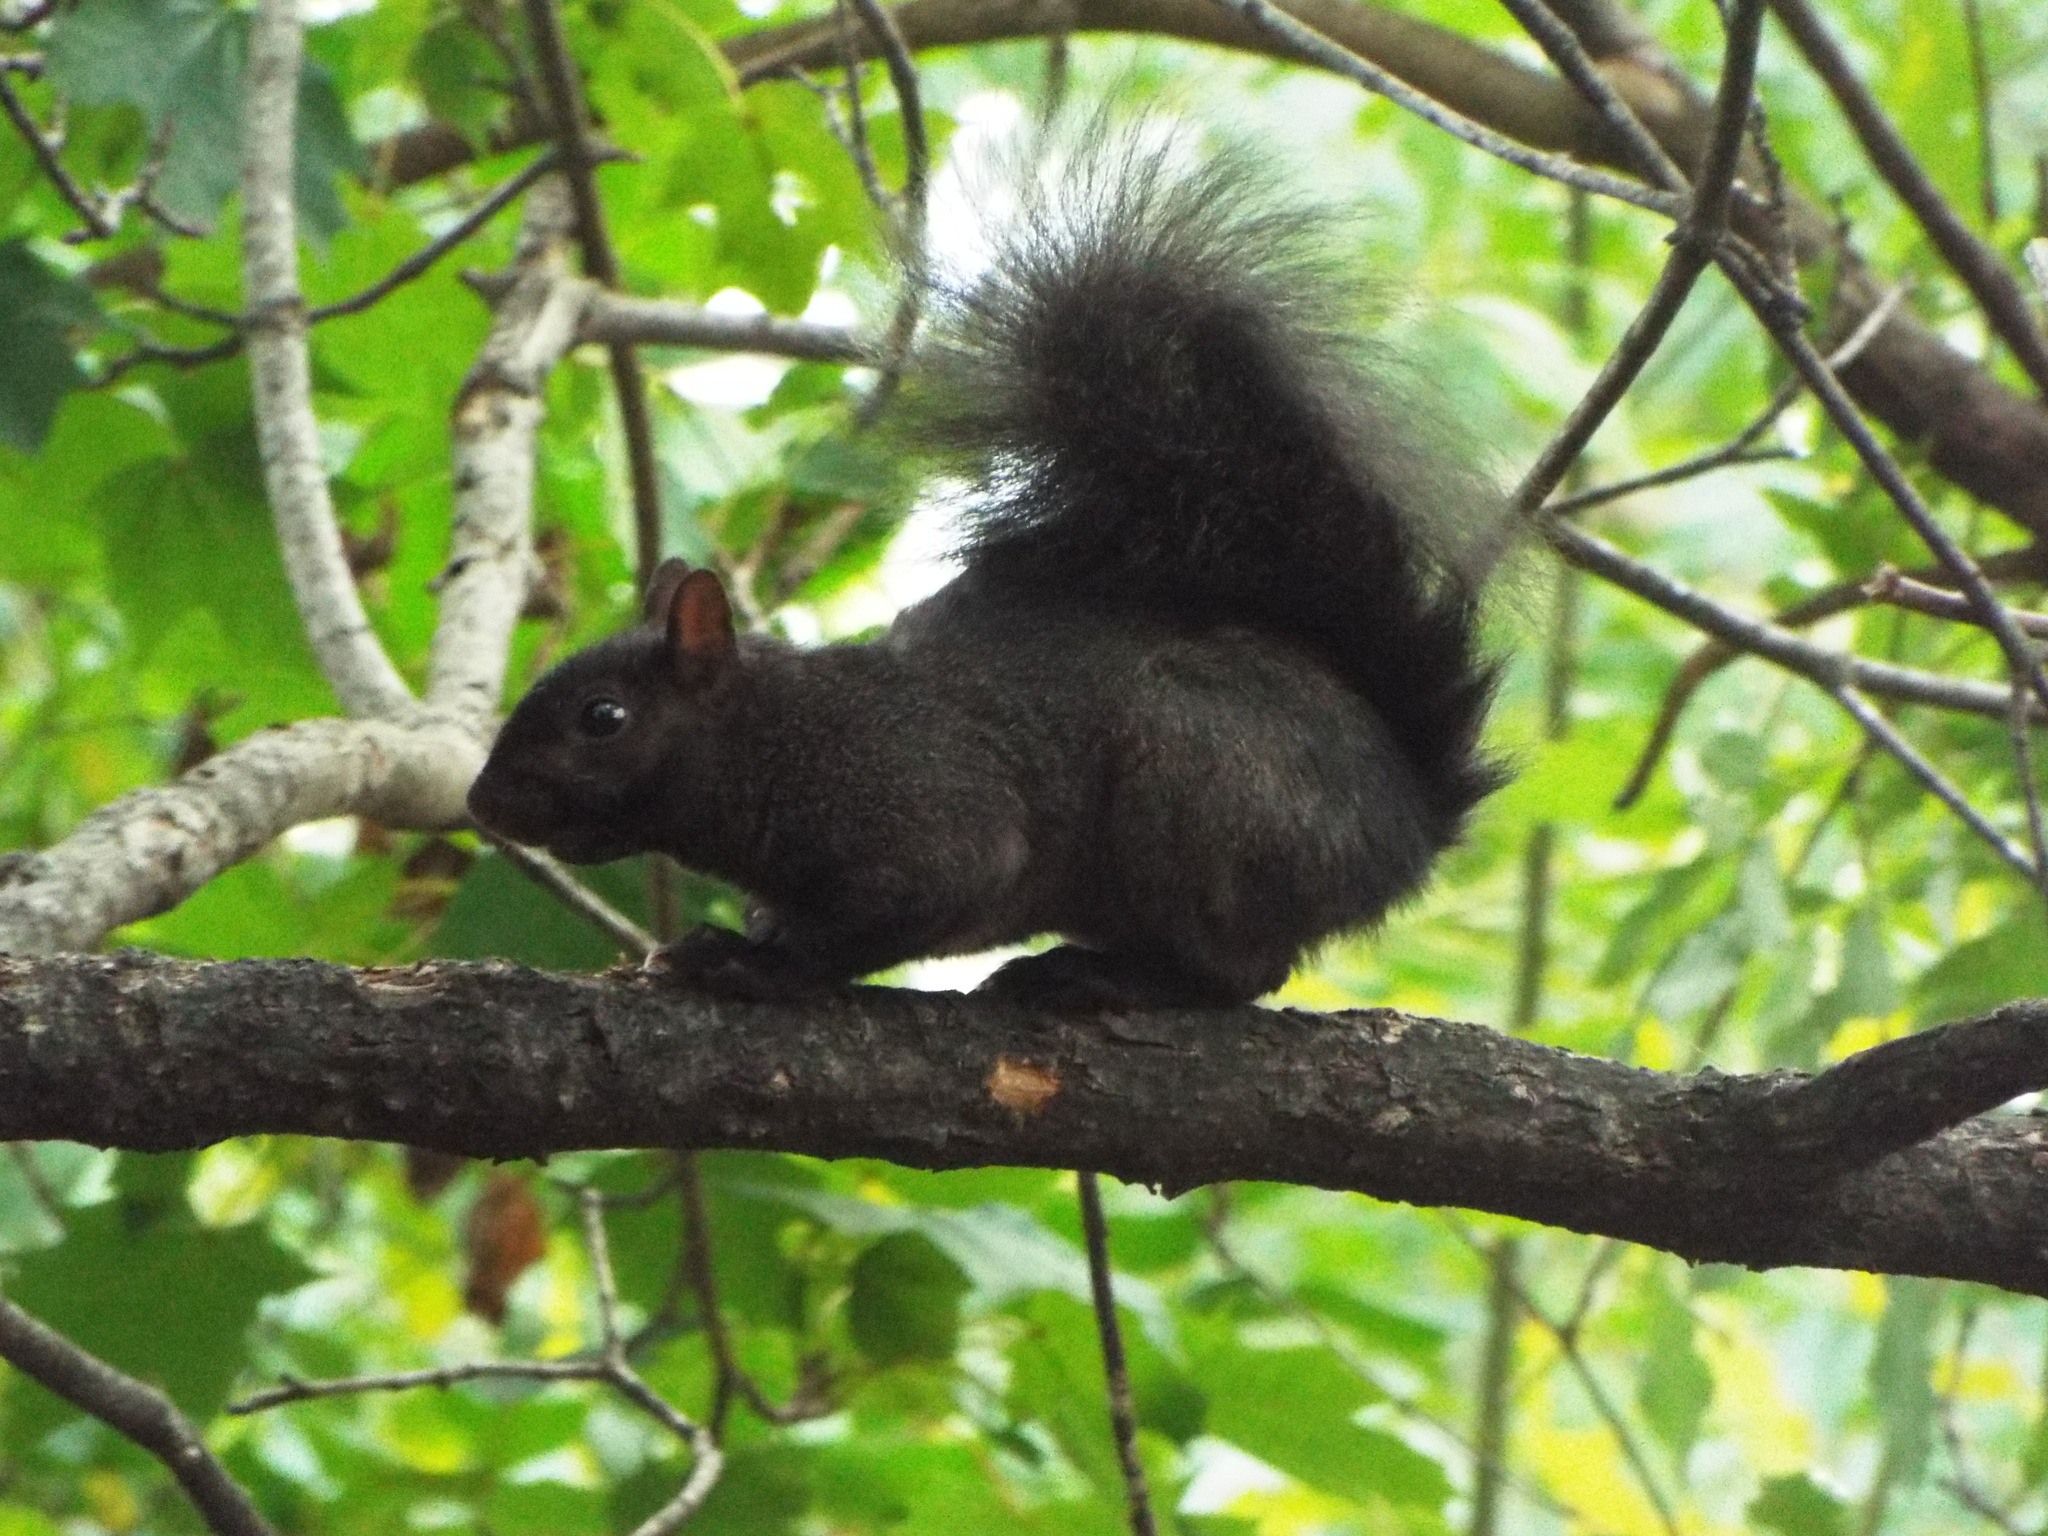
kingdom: Animalia
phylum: Chordata
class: Mammalia
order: Rodentia
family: Sciuridae
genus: Sciurus
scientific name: Sciurus carolinensis
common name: Eastern gray squirrel
